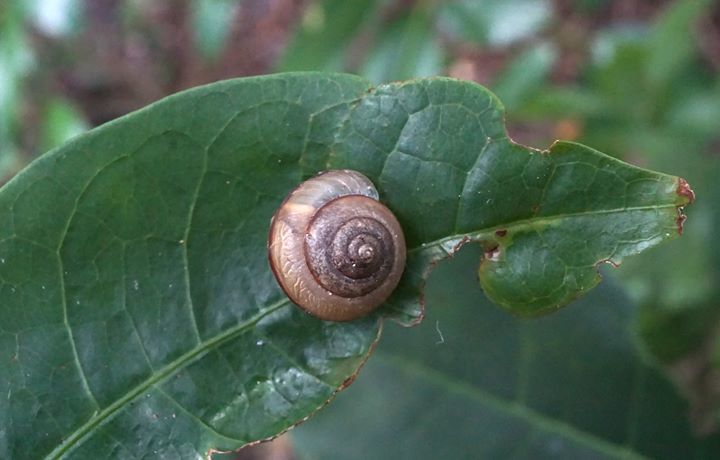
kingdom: Animalia
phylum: Mollusca
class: Gastropoda
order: Stylommatophora
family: Camaenidae
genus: Bradybaena
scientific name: Bradybaena similaris
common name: Asian trampsnail
